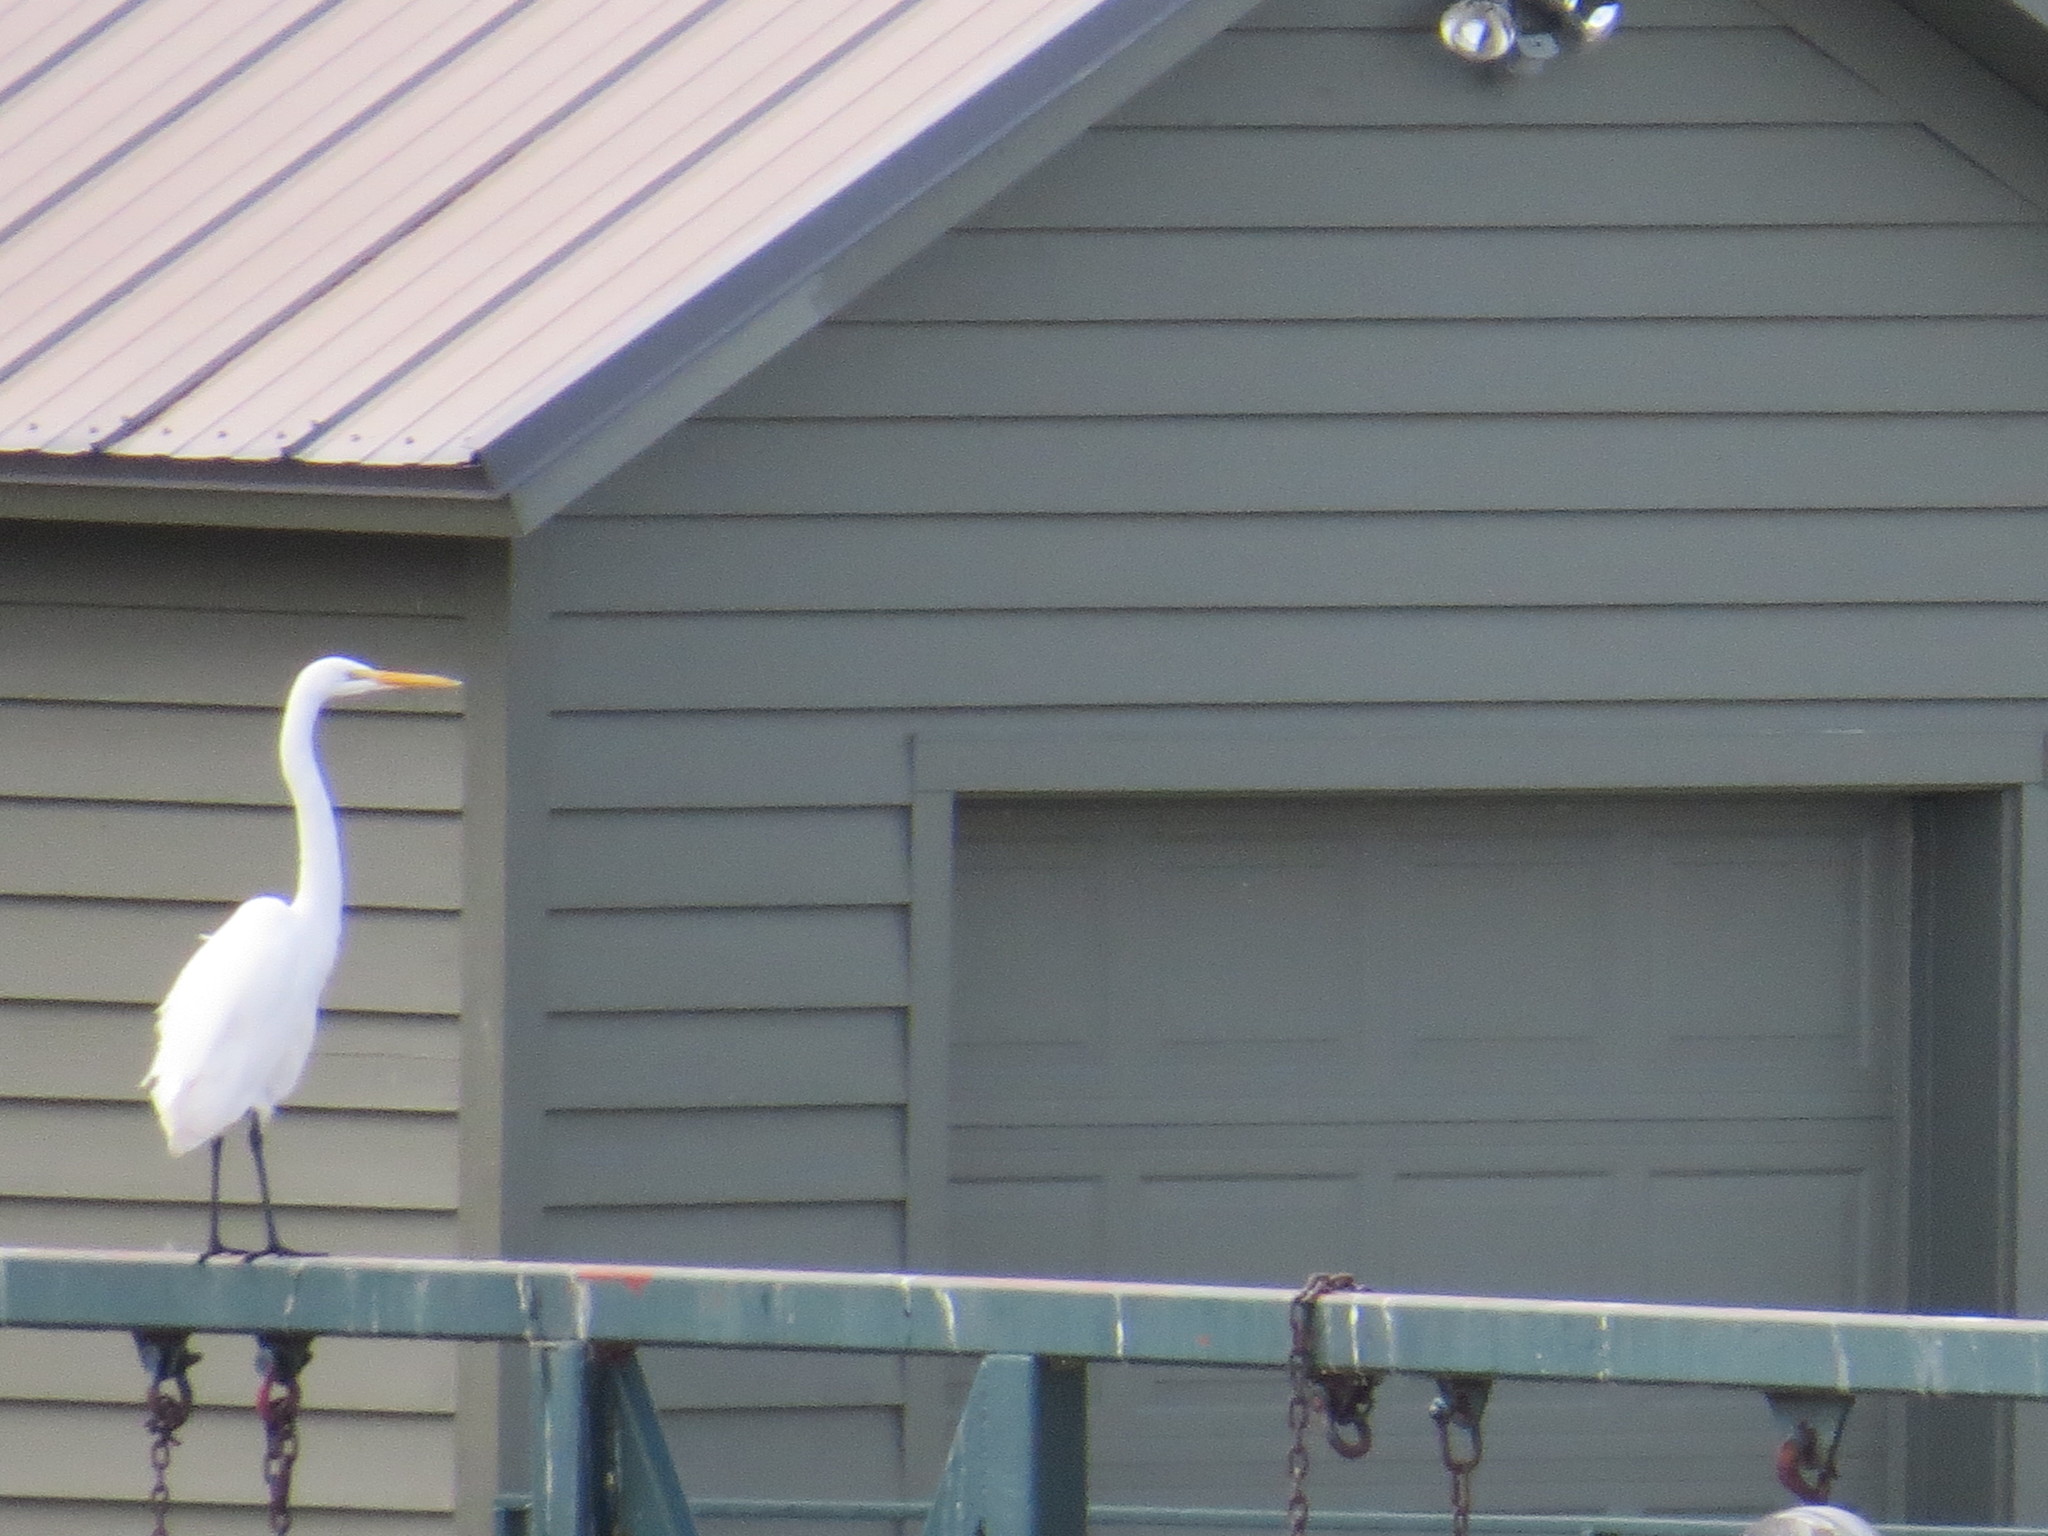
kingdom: Animalia
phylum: Chordata
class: Aves
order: Pelecaniformes
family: Ardeidae
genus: Ardea
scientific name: Ardea alba
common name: Great egret
